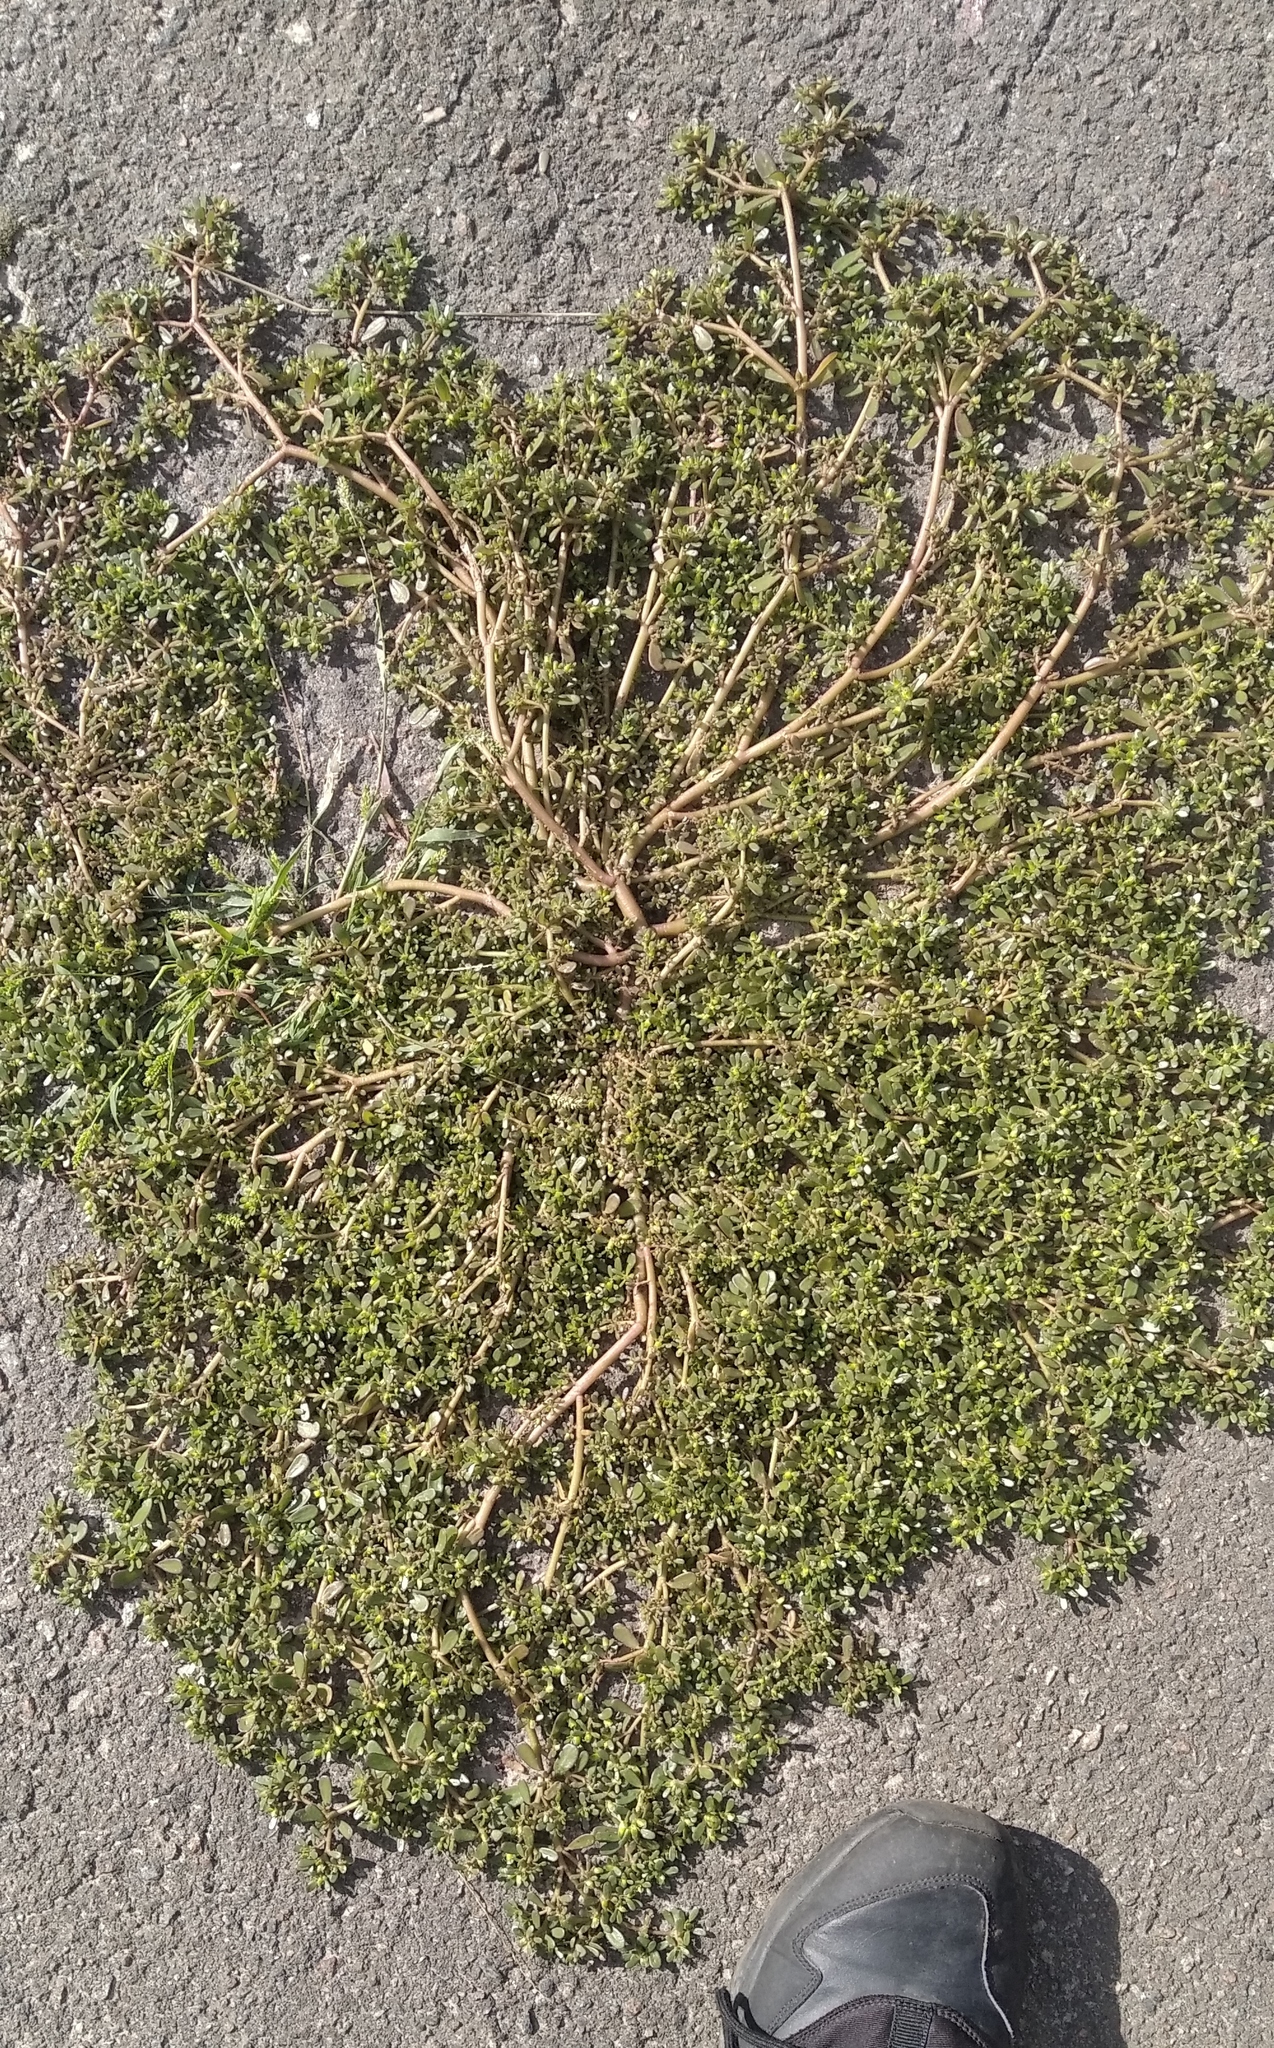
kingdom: Plantae
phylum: Tracheophyta
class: Magnoliopsida
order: Caryophyllales
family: Portulacaceae
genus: Portulaca
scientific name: Portulaca oleracea
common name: Common purslane
